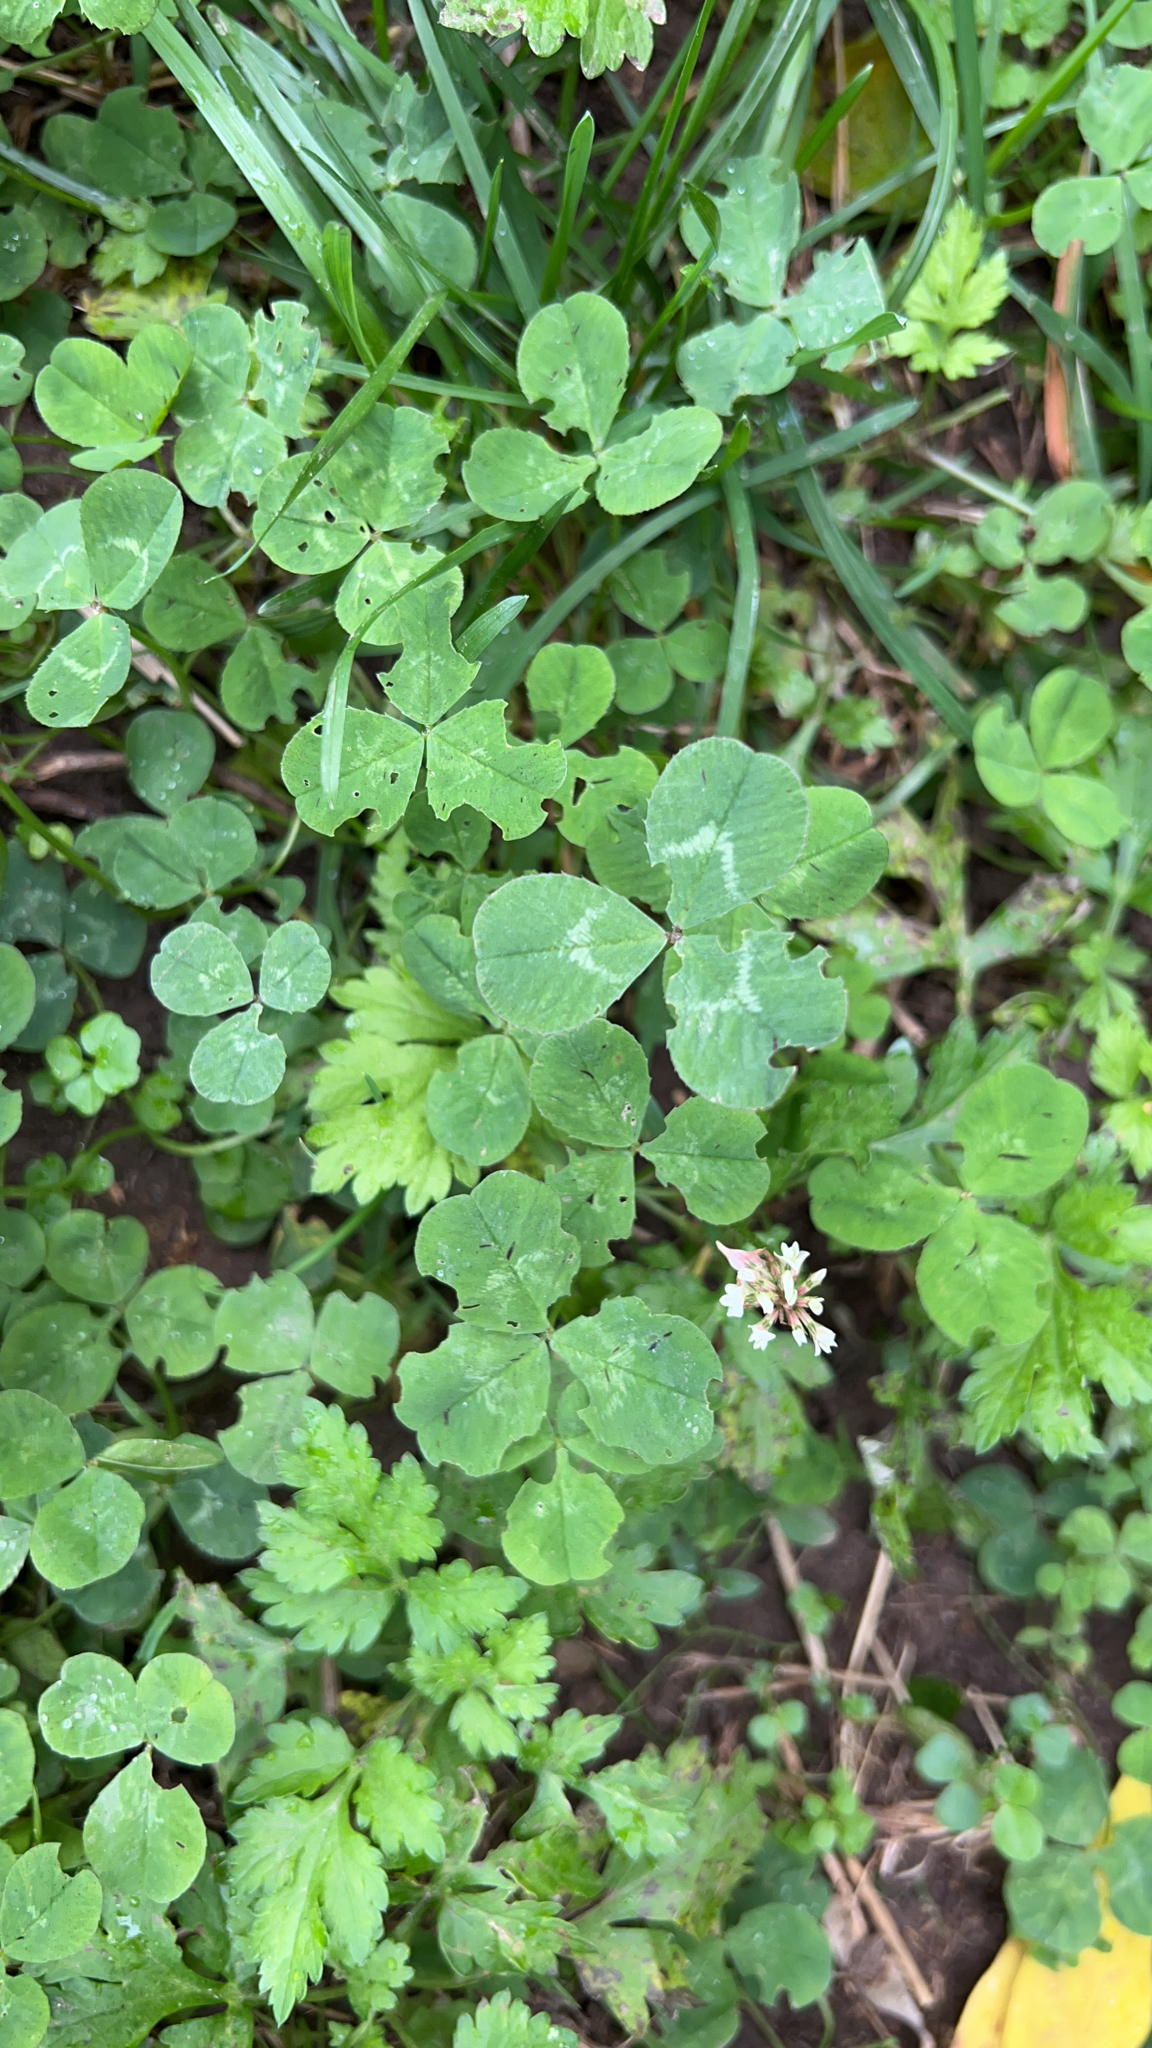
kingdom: Plantae
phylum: Tracheophyta
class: Magnoliopsida
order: Fabales
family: Fabaceae
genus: Trifolium
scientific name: Trifolium repens
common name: White clover
